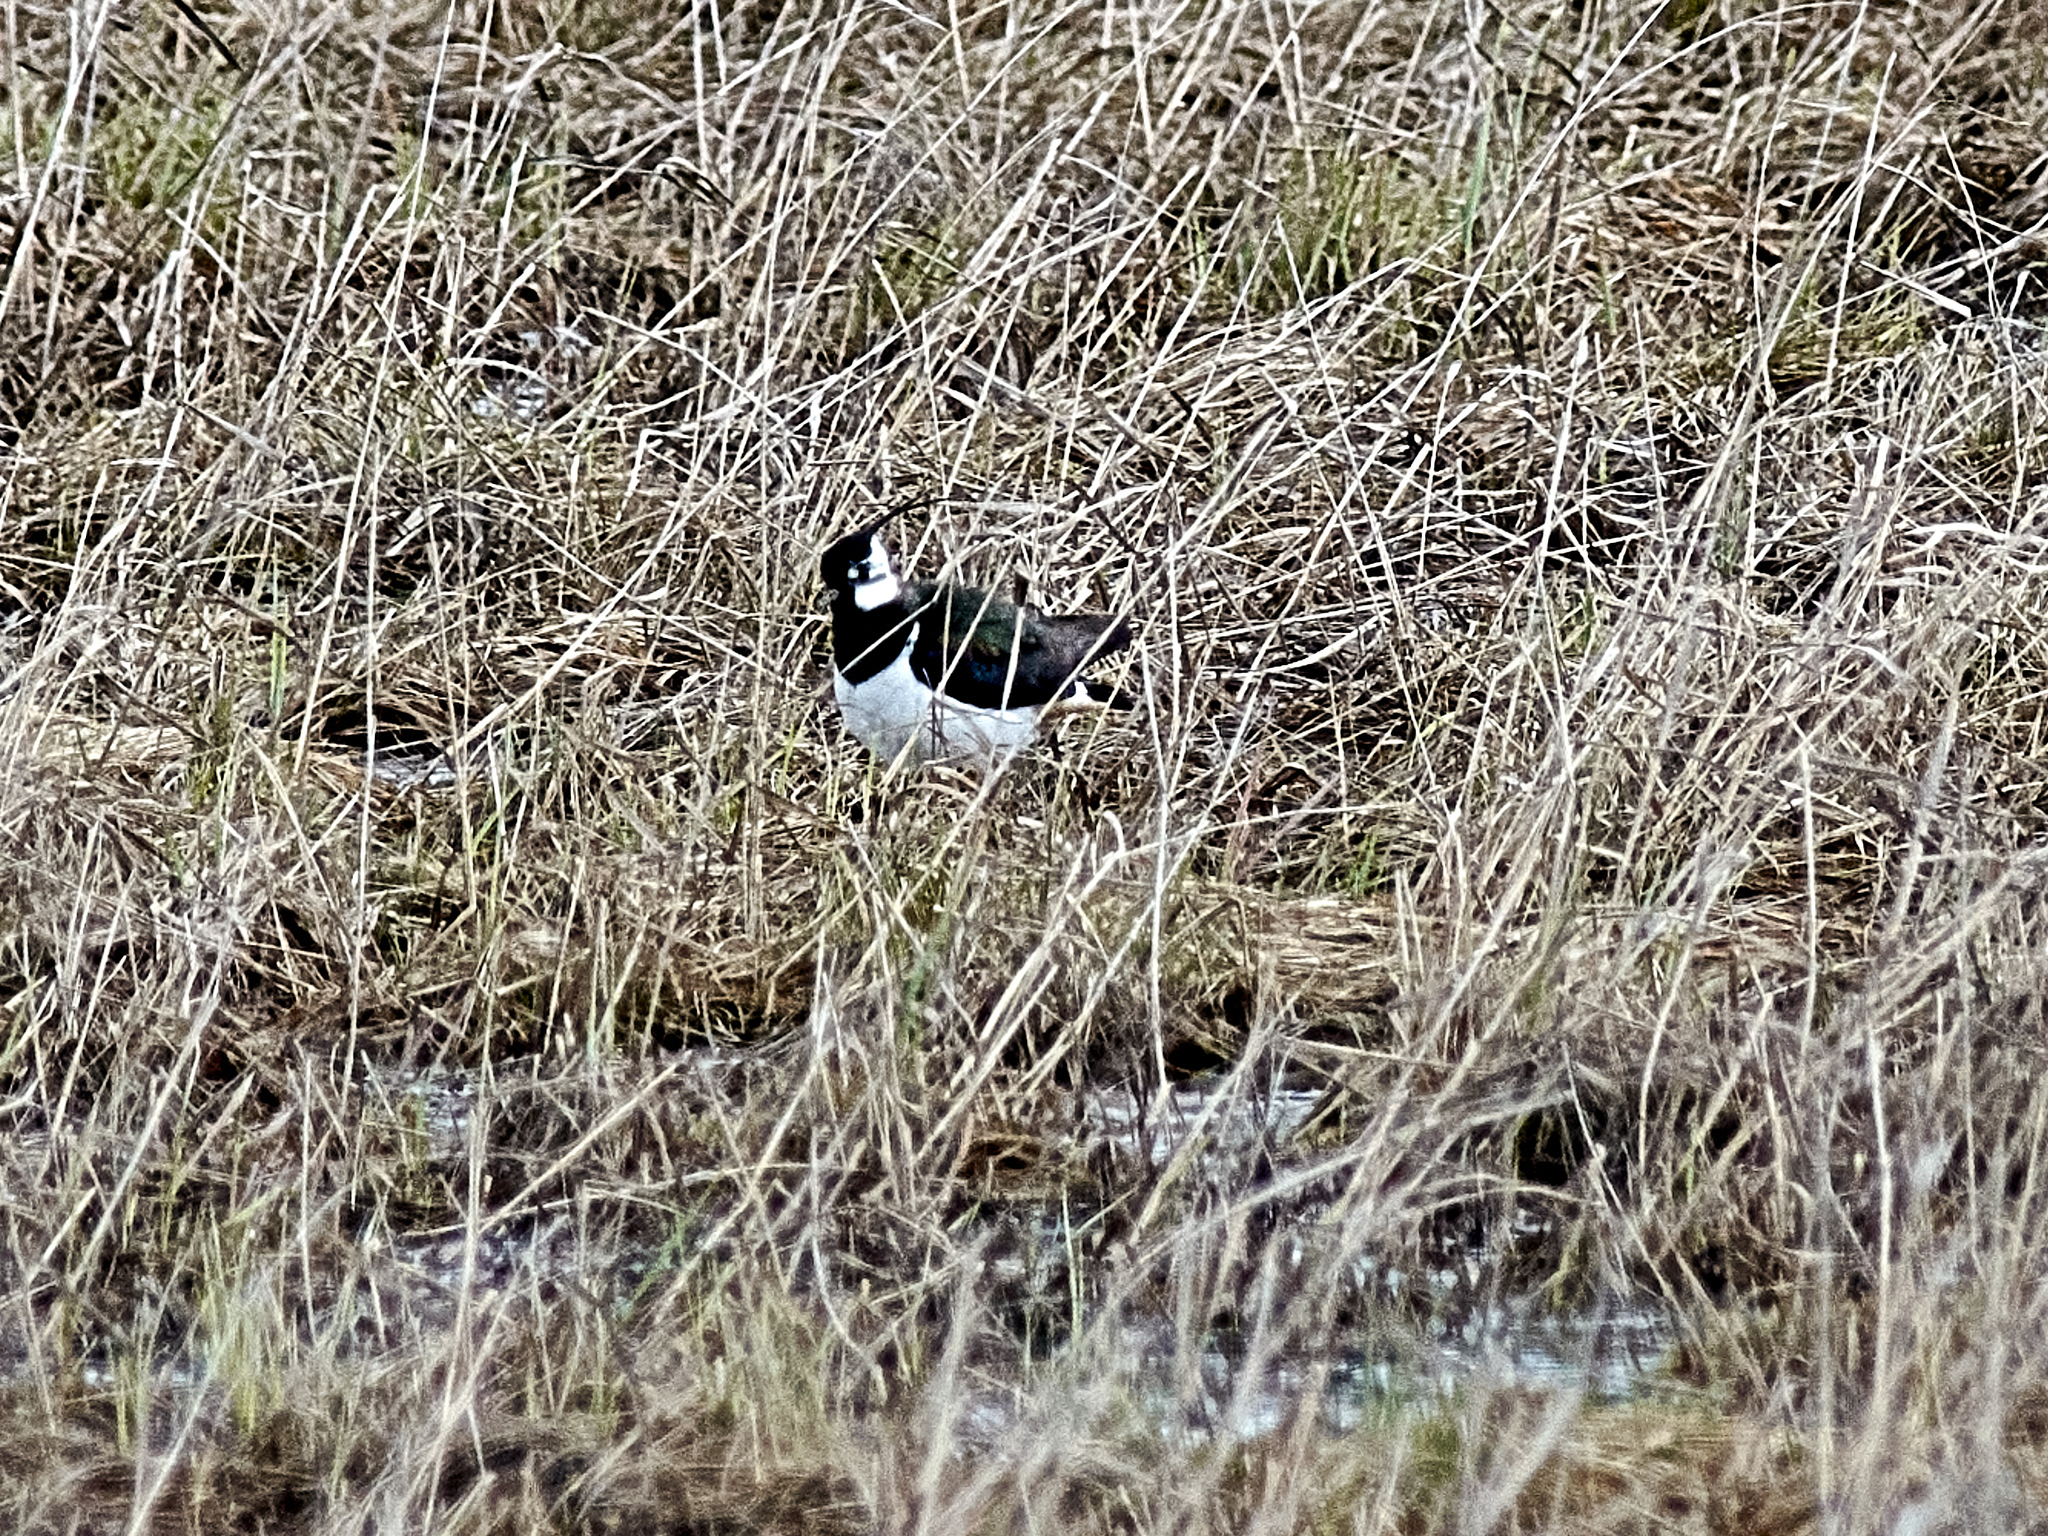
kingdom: Animalia
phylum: Chordata
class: Aves
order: Charadriiformes
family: Charadriidae
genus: Vanellus
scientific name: Vanellus vanellus
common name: Northern lapwing
